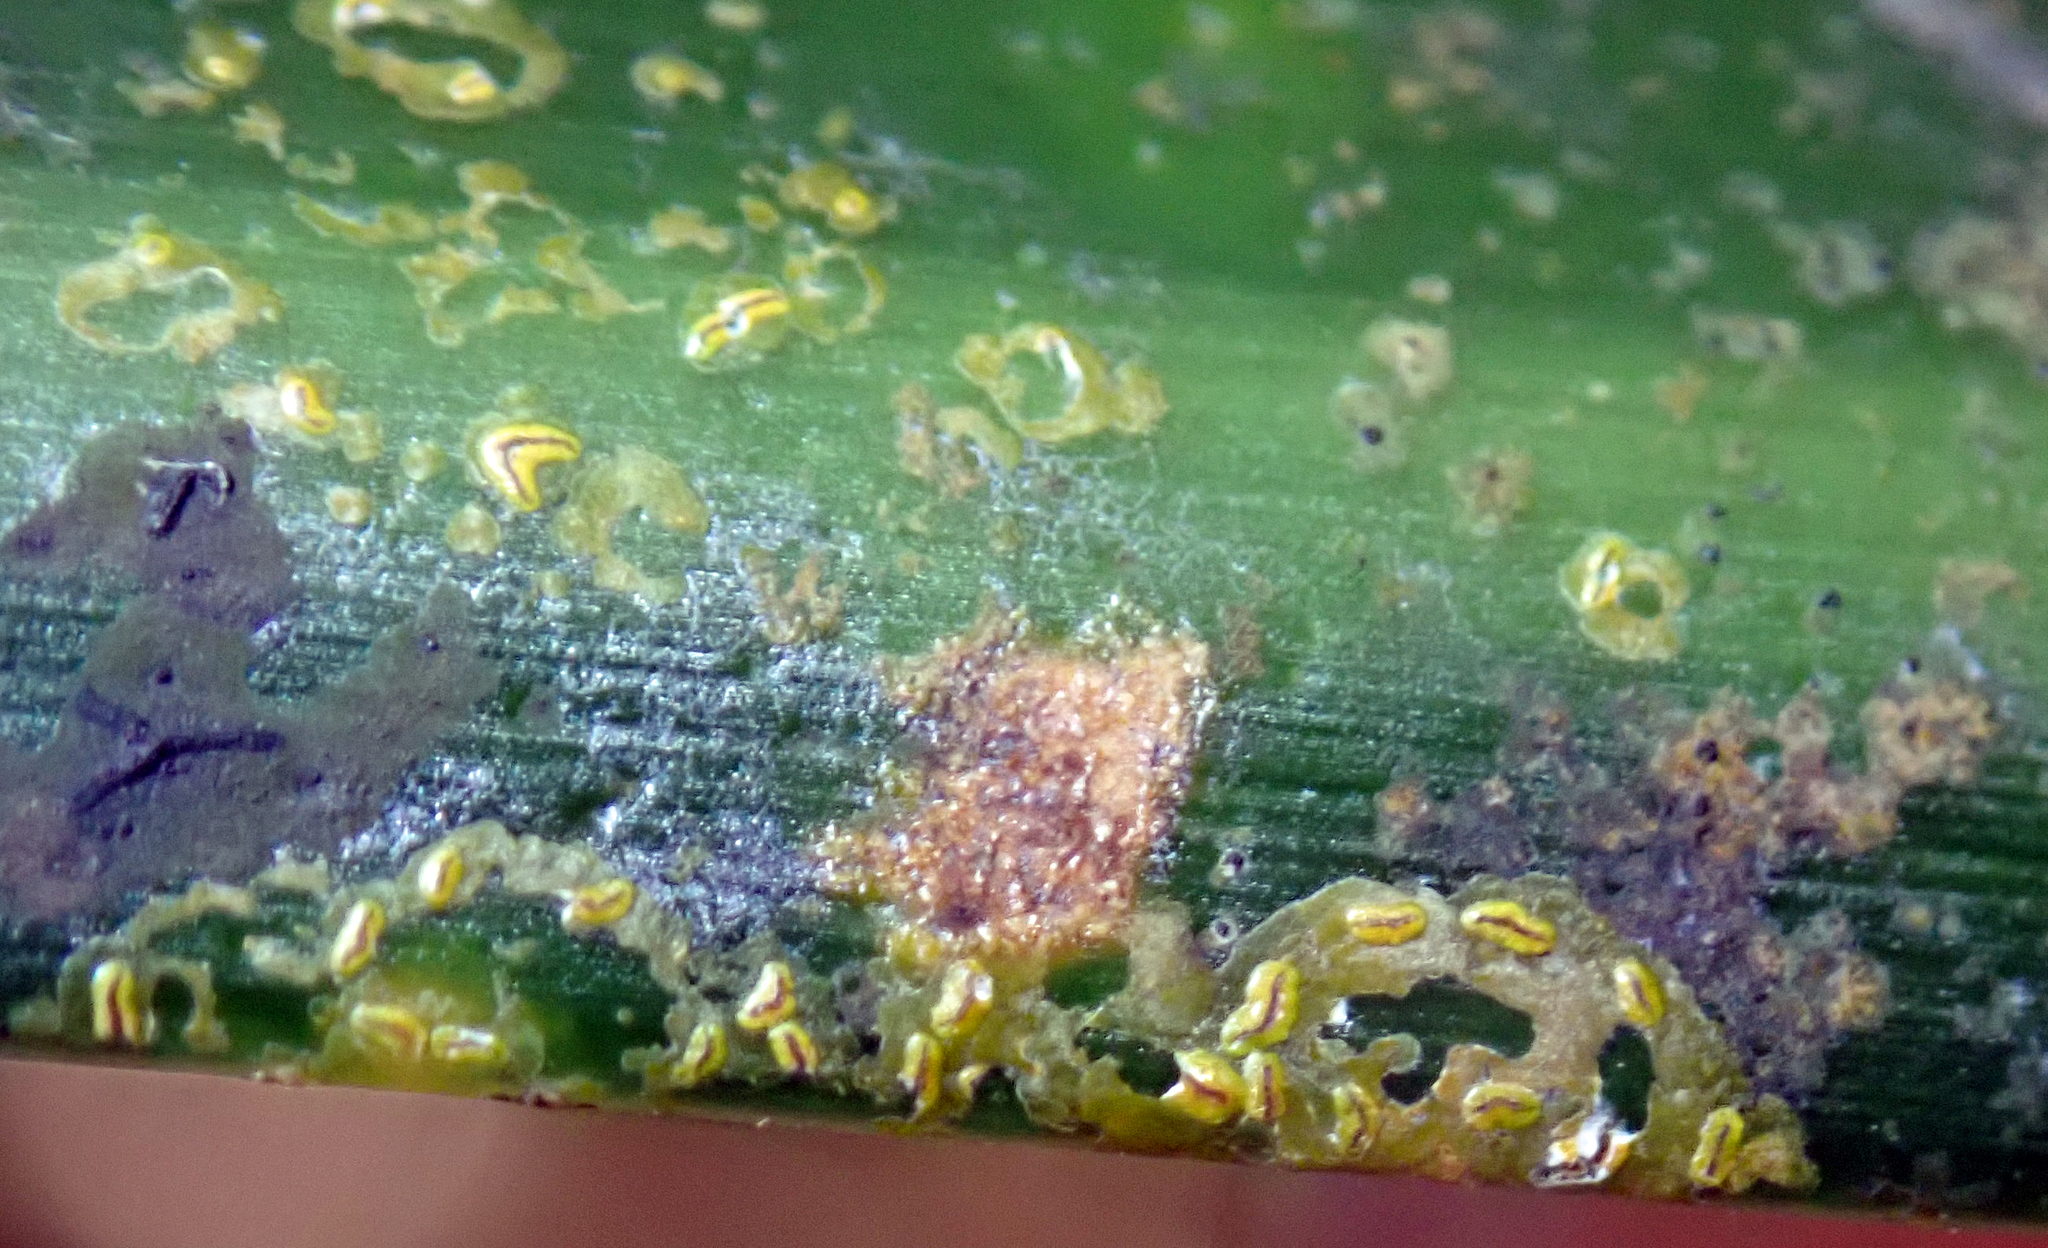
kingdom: Fungi
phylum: Ascomycota
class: Arthoniomycetes
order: Arthoniales
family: Roccellaceae
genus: Enterographa
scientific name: Enterographa bella
